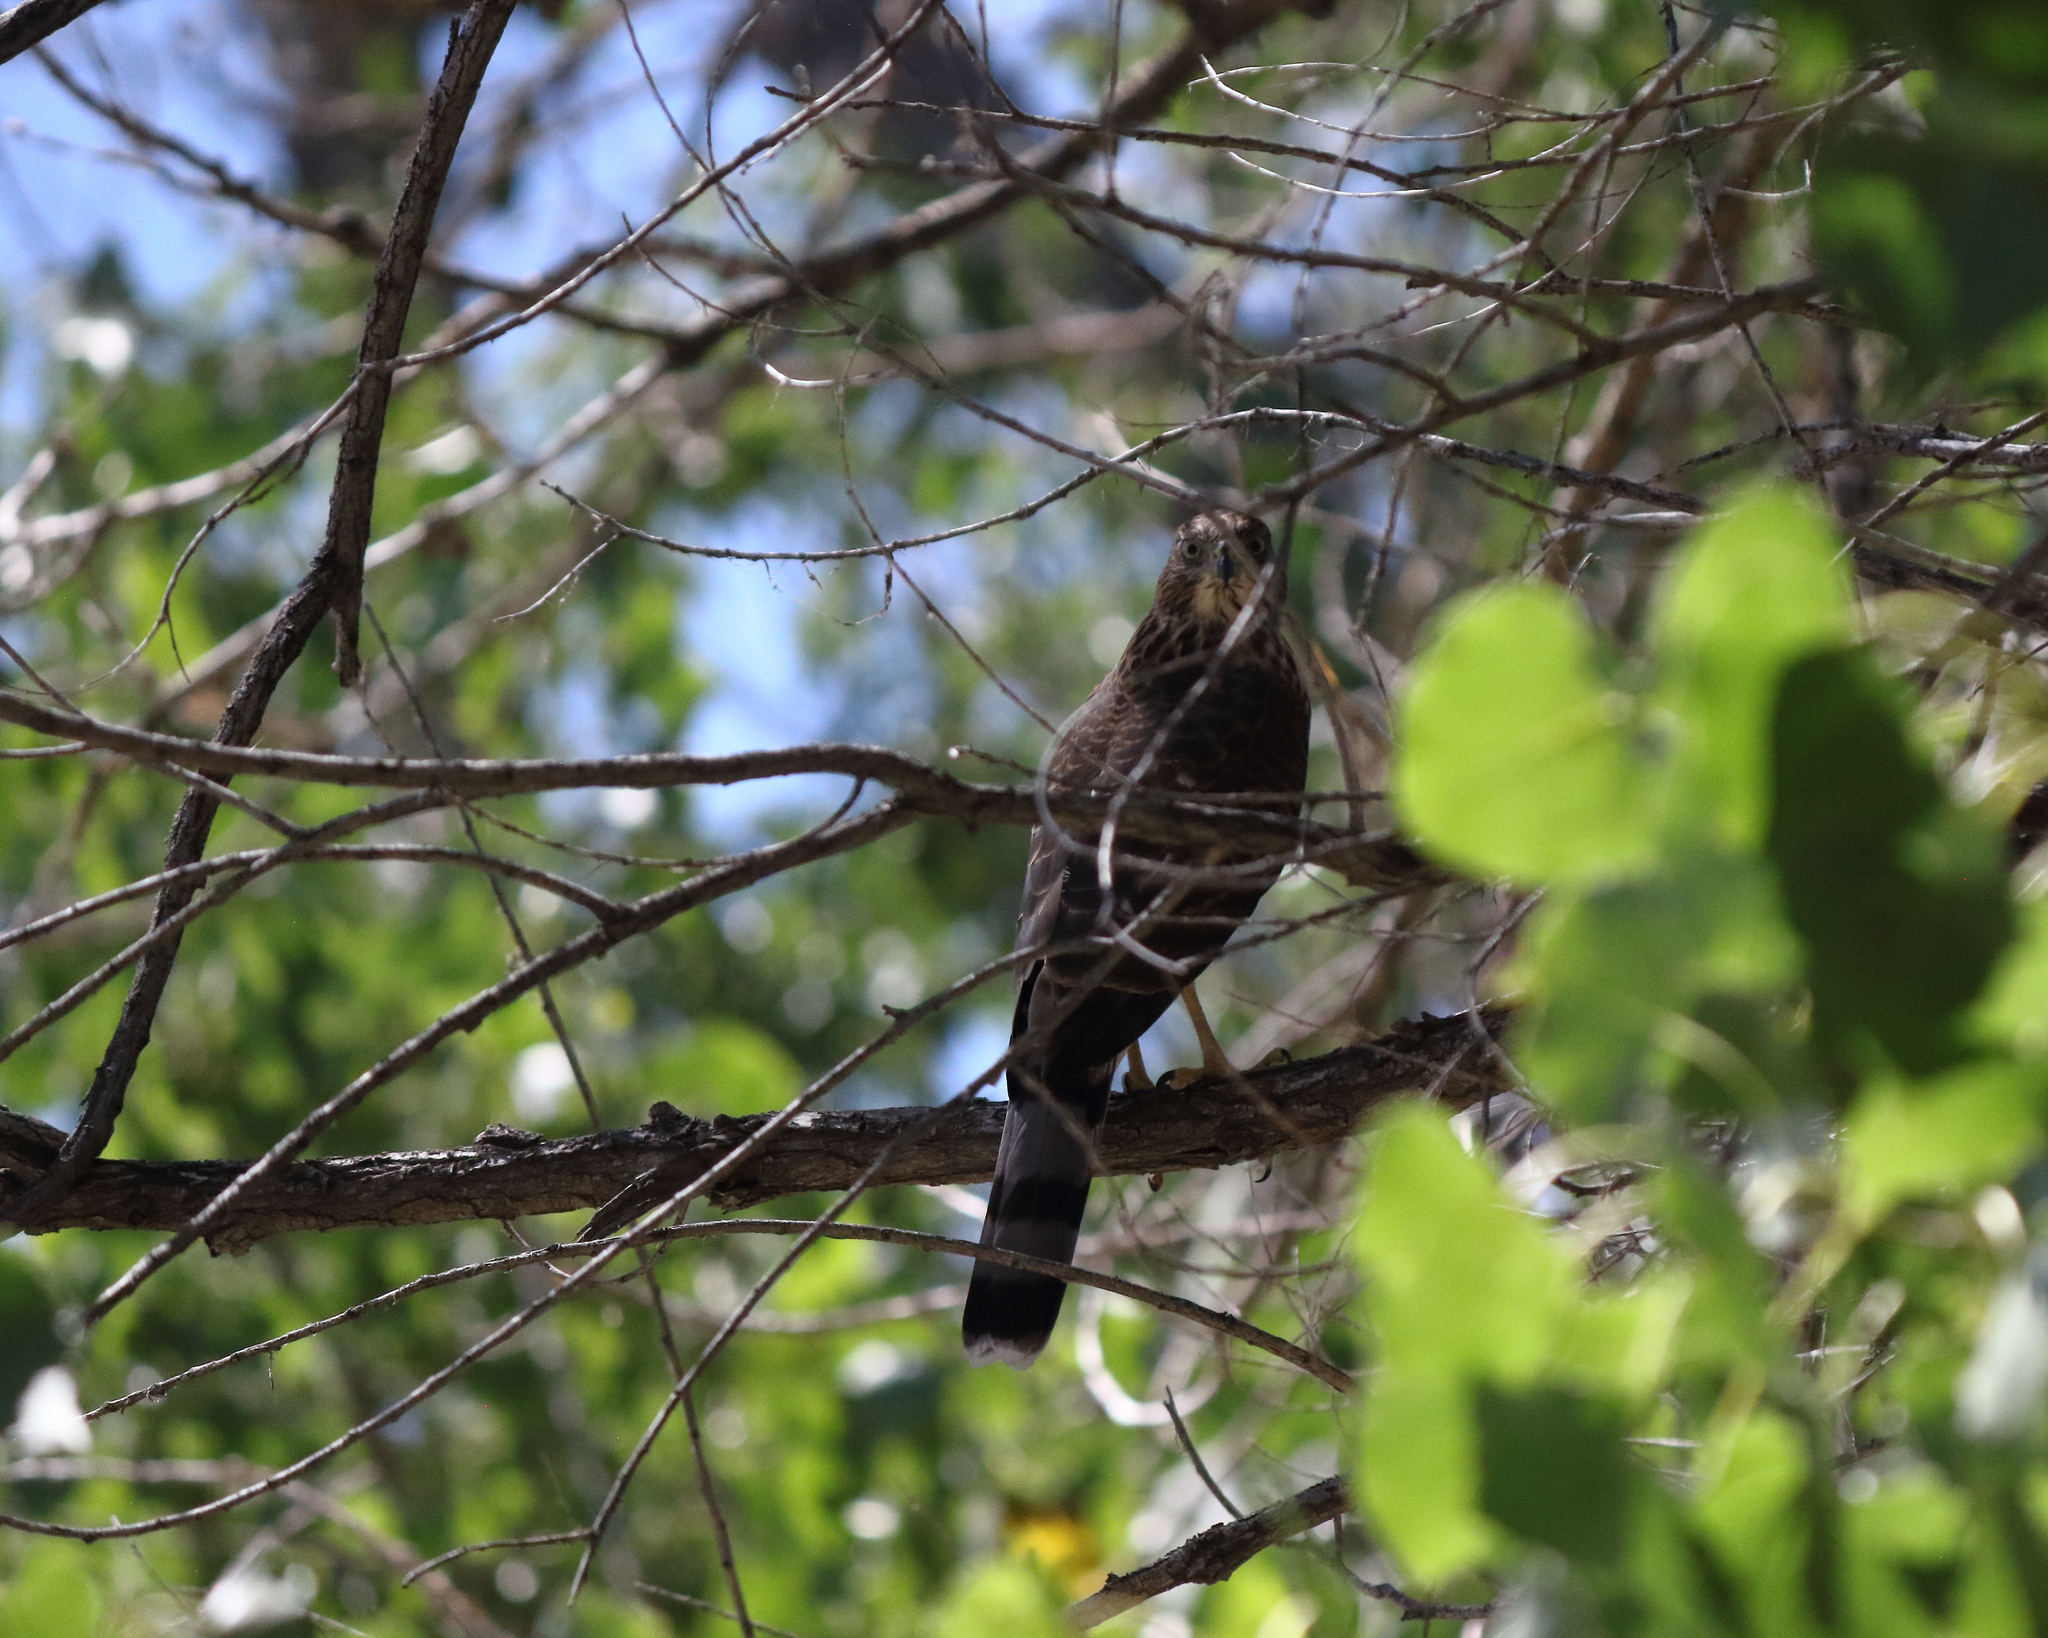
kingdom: Animalia
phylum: Chordata
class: Aves
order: Accipitriformes
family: Accipitridae
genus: Accipiter
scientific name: Accipiter cooperii
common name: Cooper's hawk
